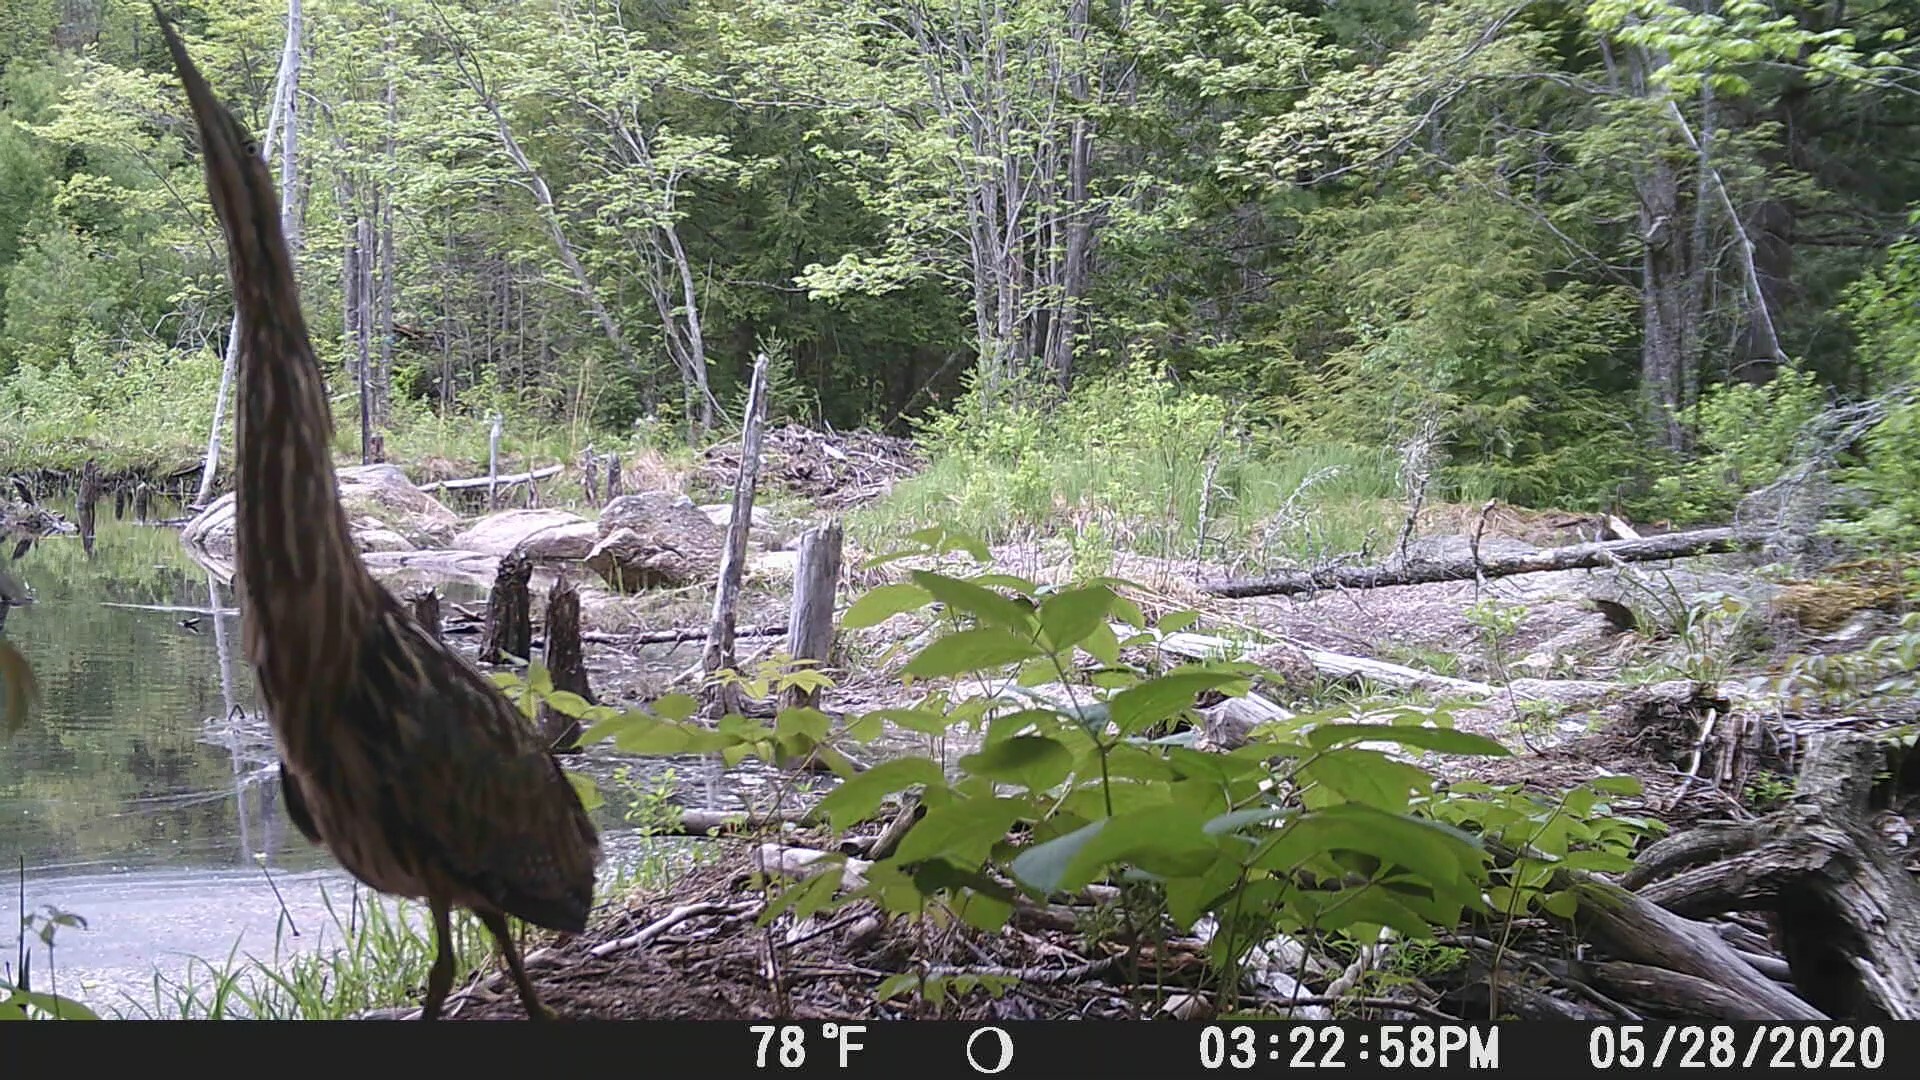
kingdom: Animalia
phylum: Chordata
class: Aves
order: Pelecaniformes
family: Ardeidae
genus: Botaurus
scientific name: Botaurus lentiginosus
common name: American bittern
